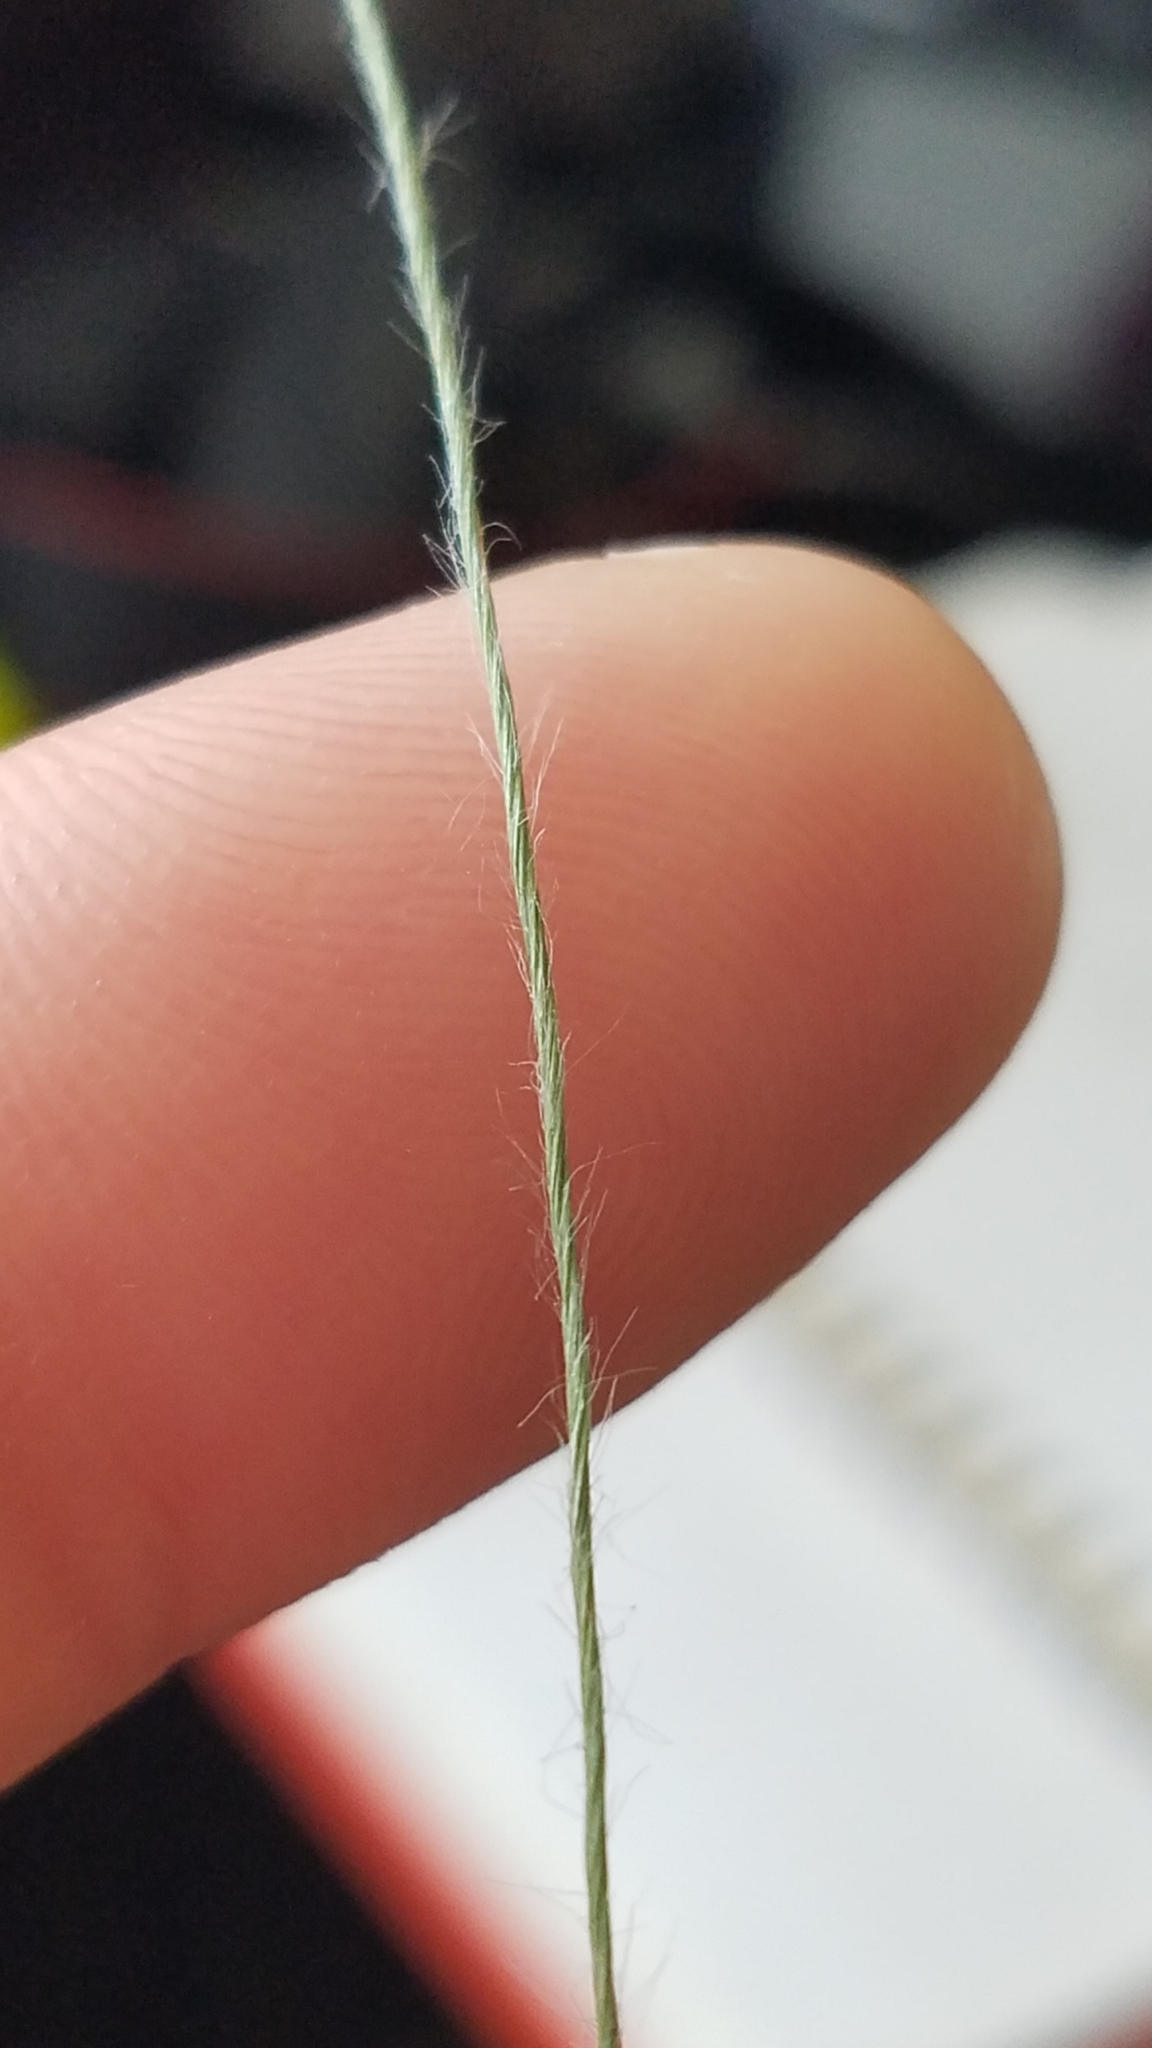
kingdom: Plantae
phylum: Tracheophyta
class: Liliopsida
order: Poales
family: Eriocaulaceae
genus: Paepalanthus
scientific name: Paepalanthus minus
